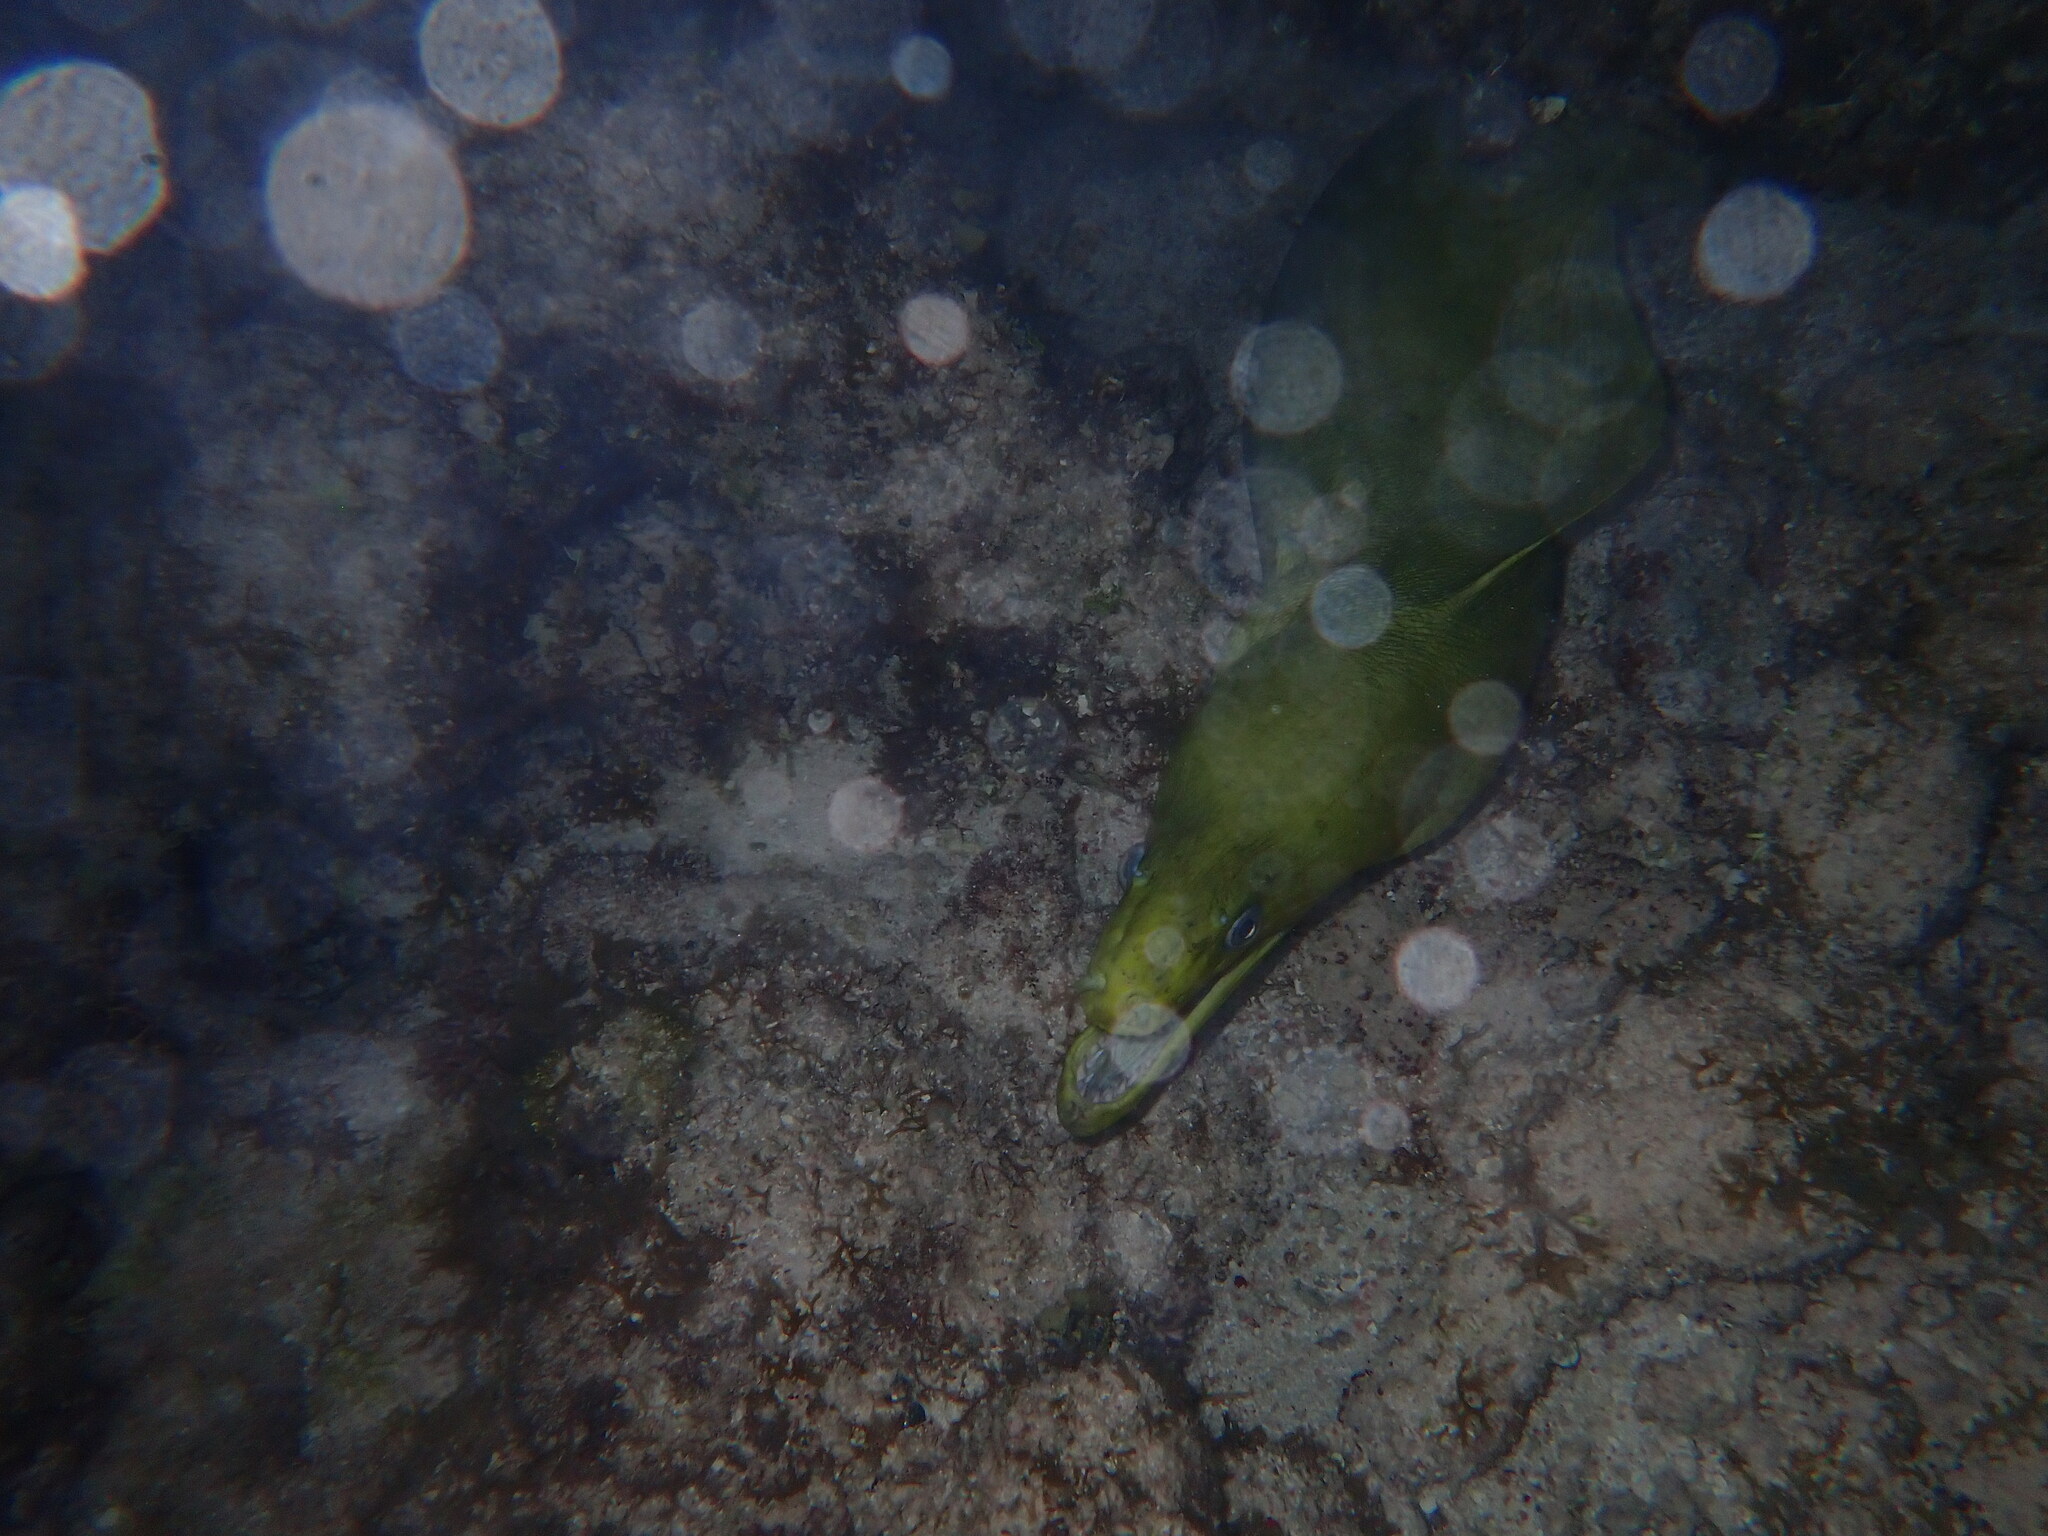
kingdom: Animalia
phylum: Chordata
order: Anguilliformes
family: Muraenidae
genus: Gymnothorax
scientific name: Gymnothorax funebris
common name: Green moray
